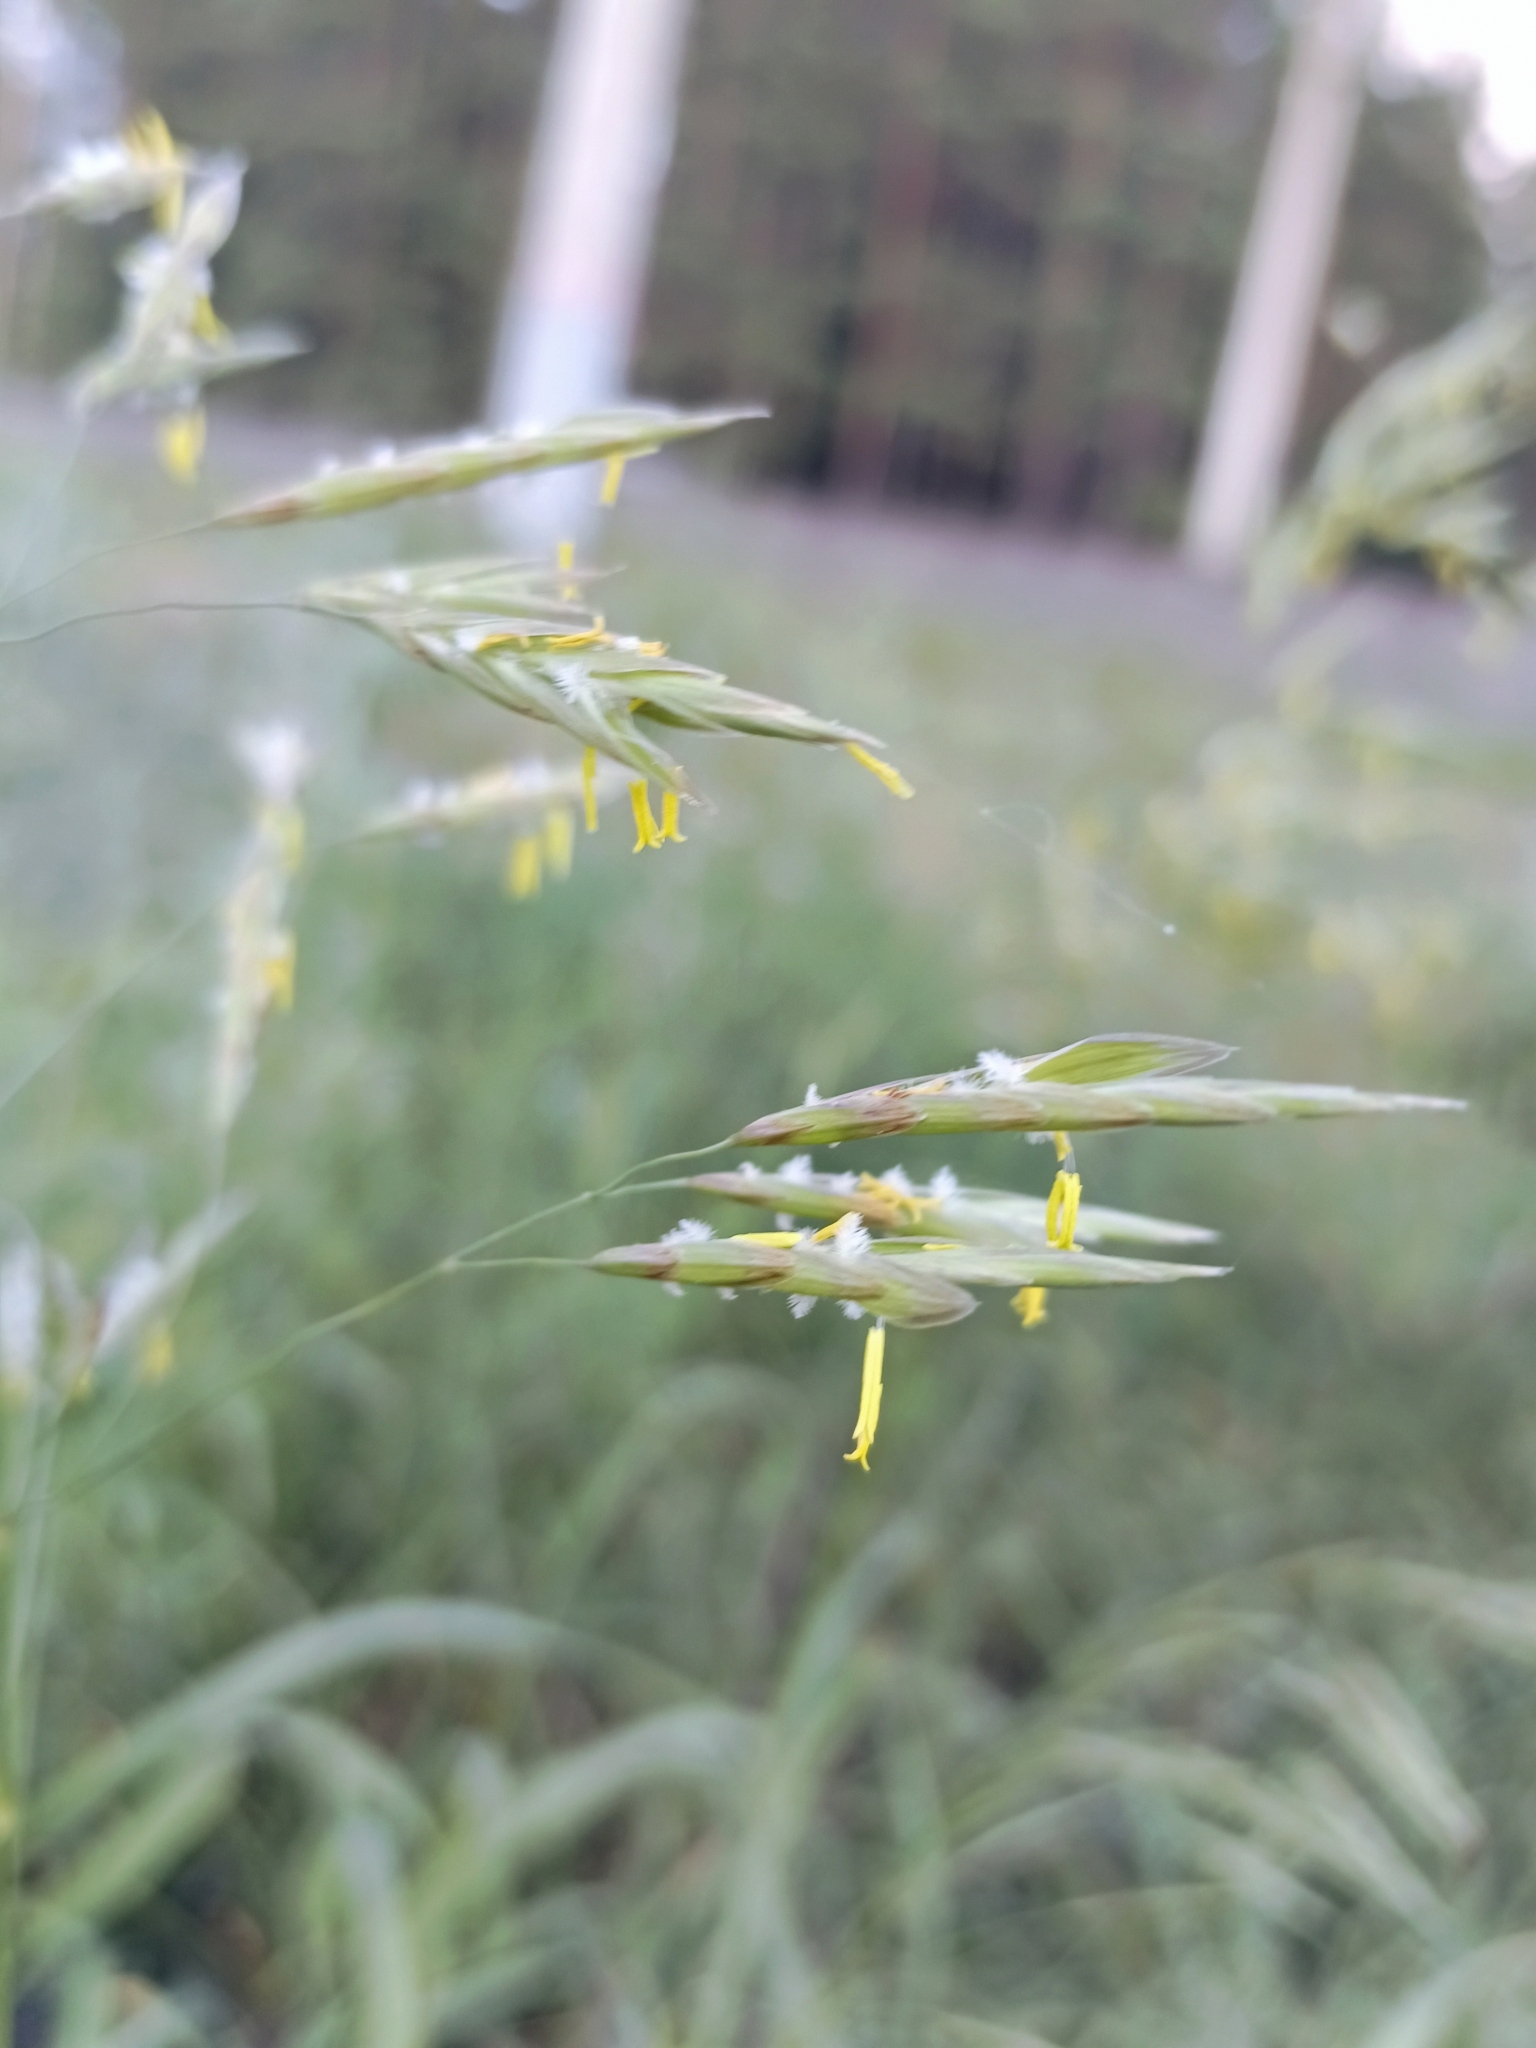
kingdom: Plantae
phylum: Tracheophyta
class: Liliopsida
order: Poales
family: Poaceae
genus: Bromus
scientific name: Bromus inermis
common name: Smooth brome
